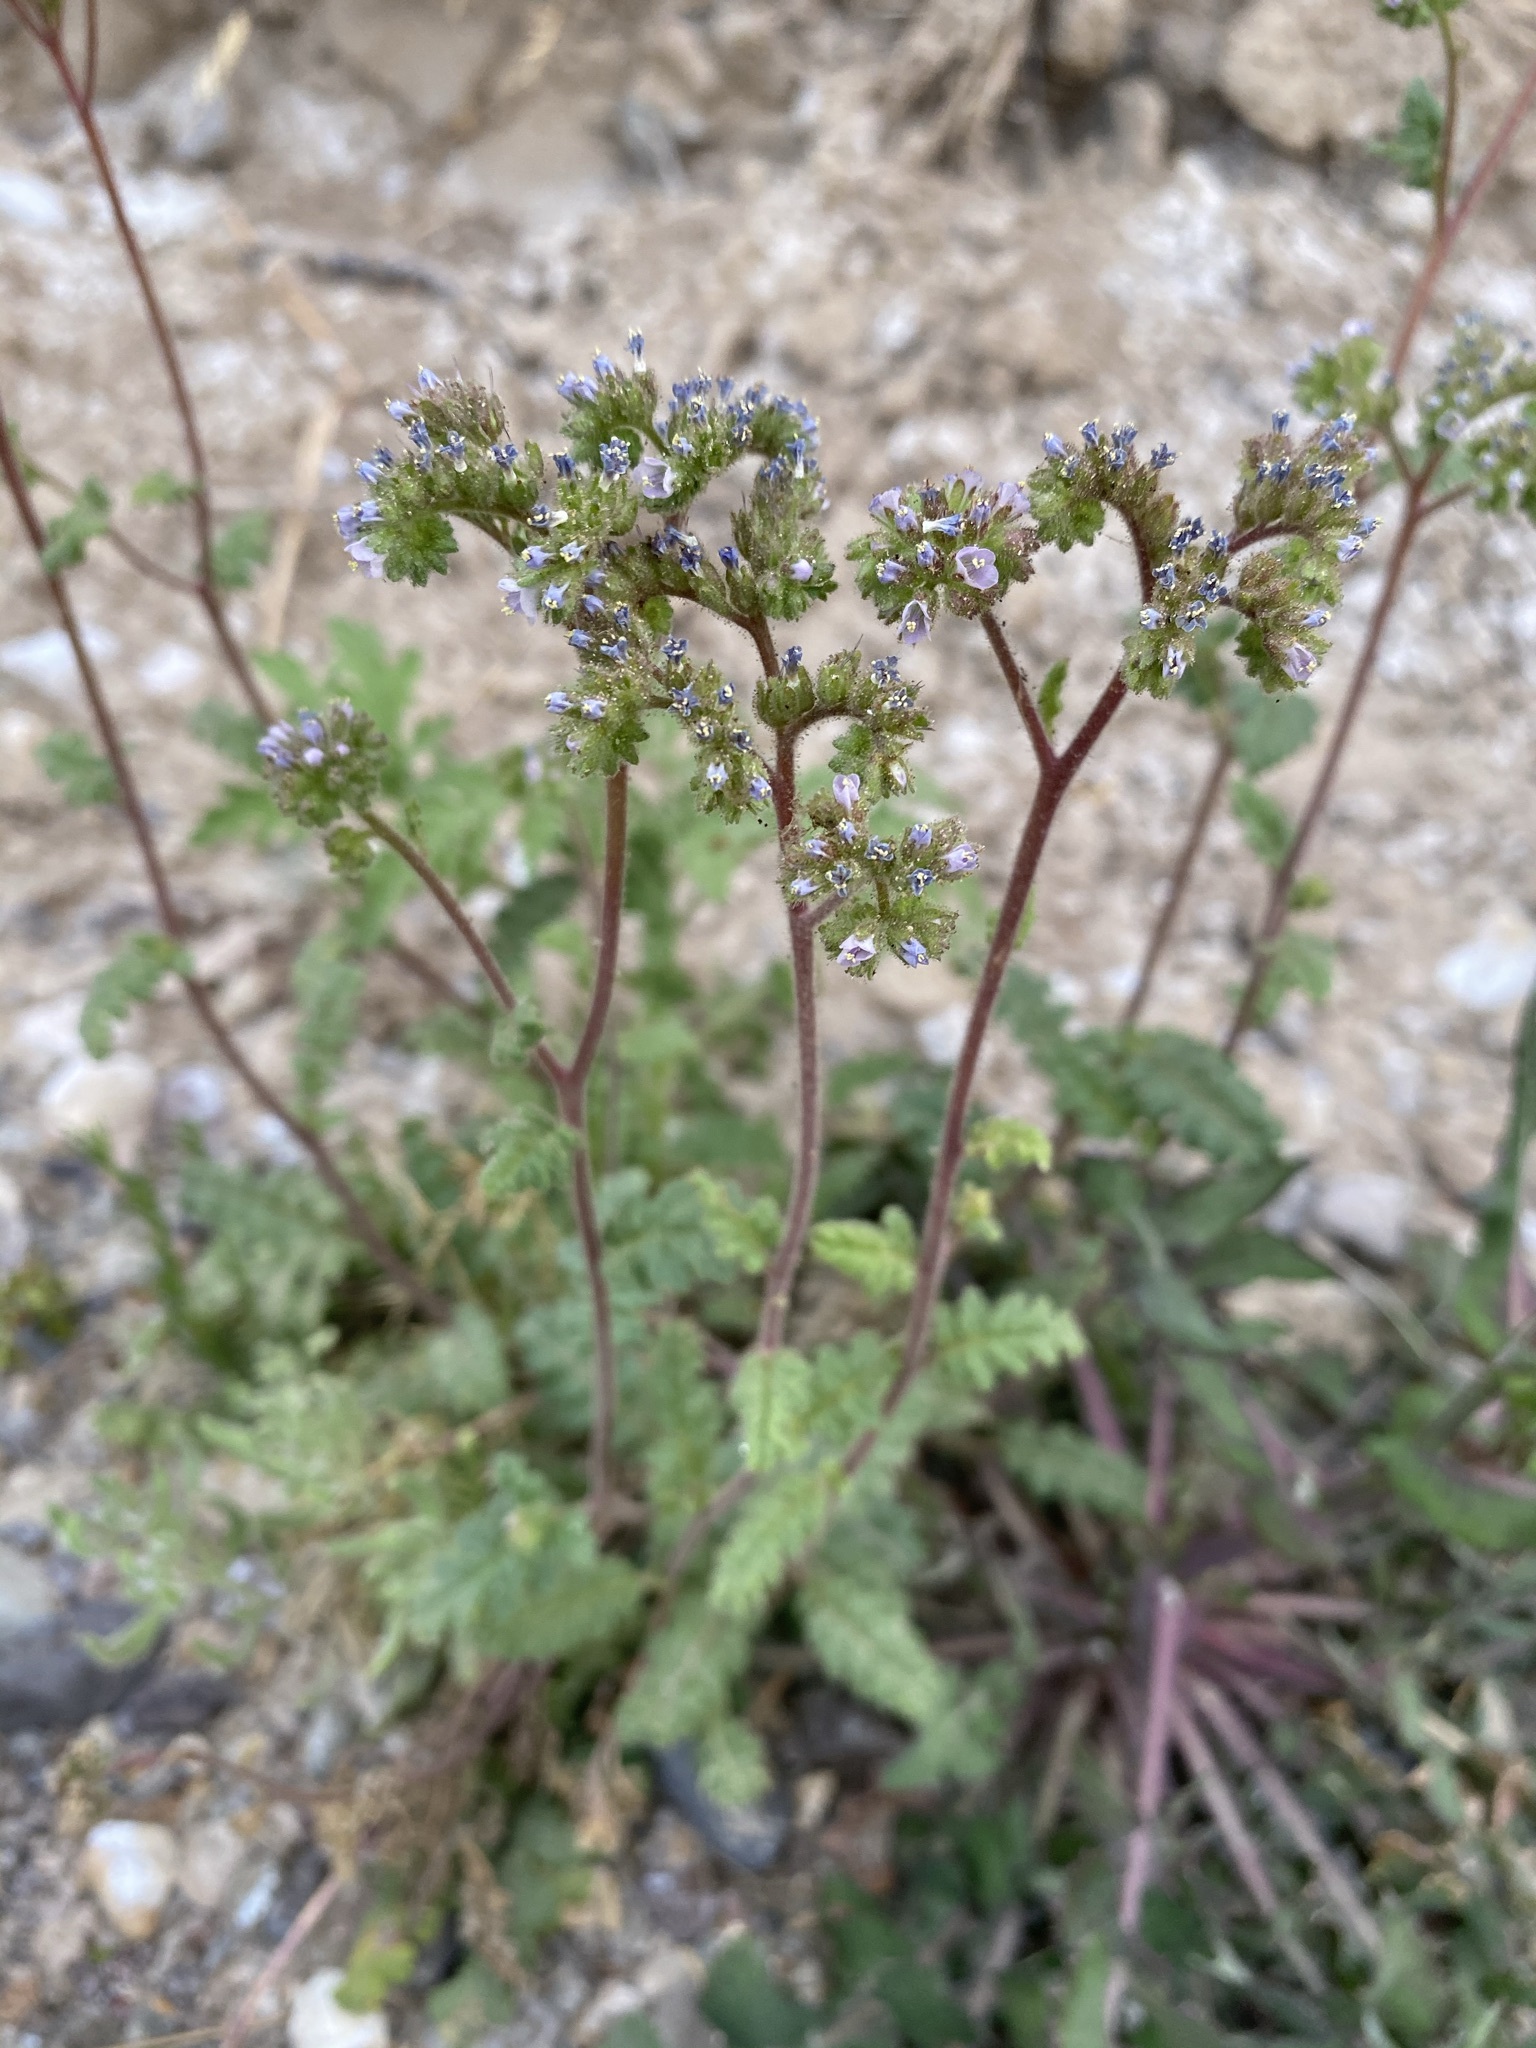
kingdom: Plantae
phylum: Tracheophyta
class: Magnoliopsida
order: Boraginales
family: Hydrophyllaceae
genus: Phacelia
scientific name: Phacelia coerulea
